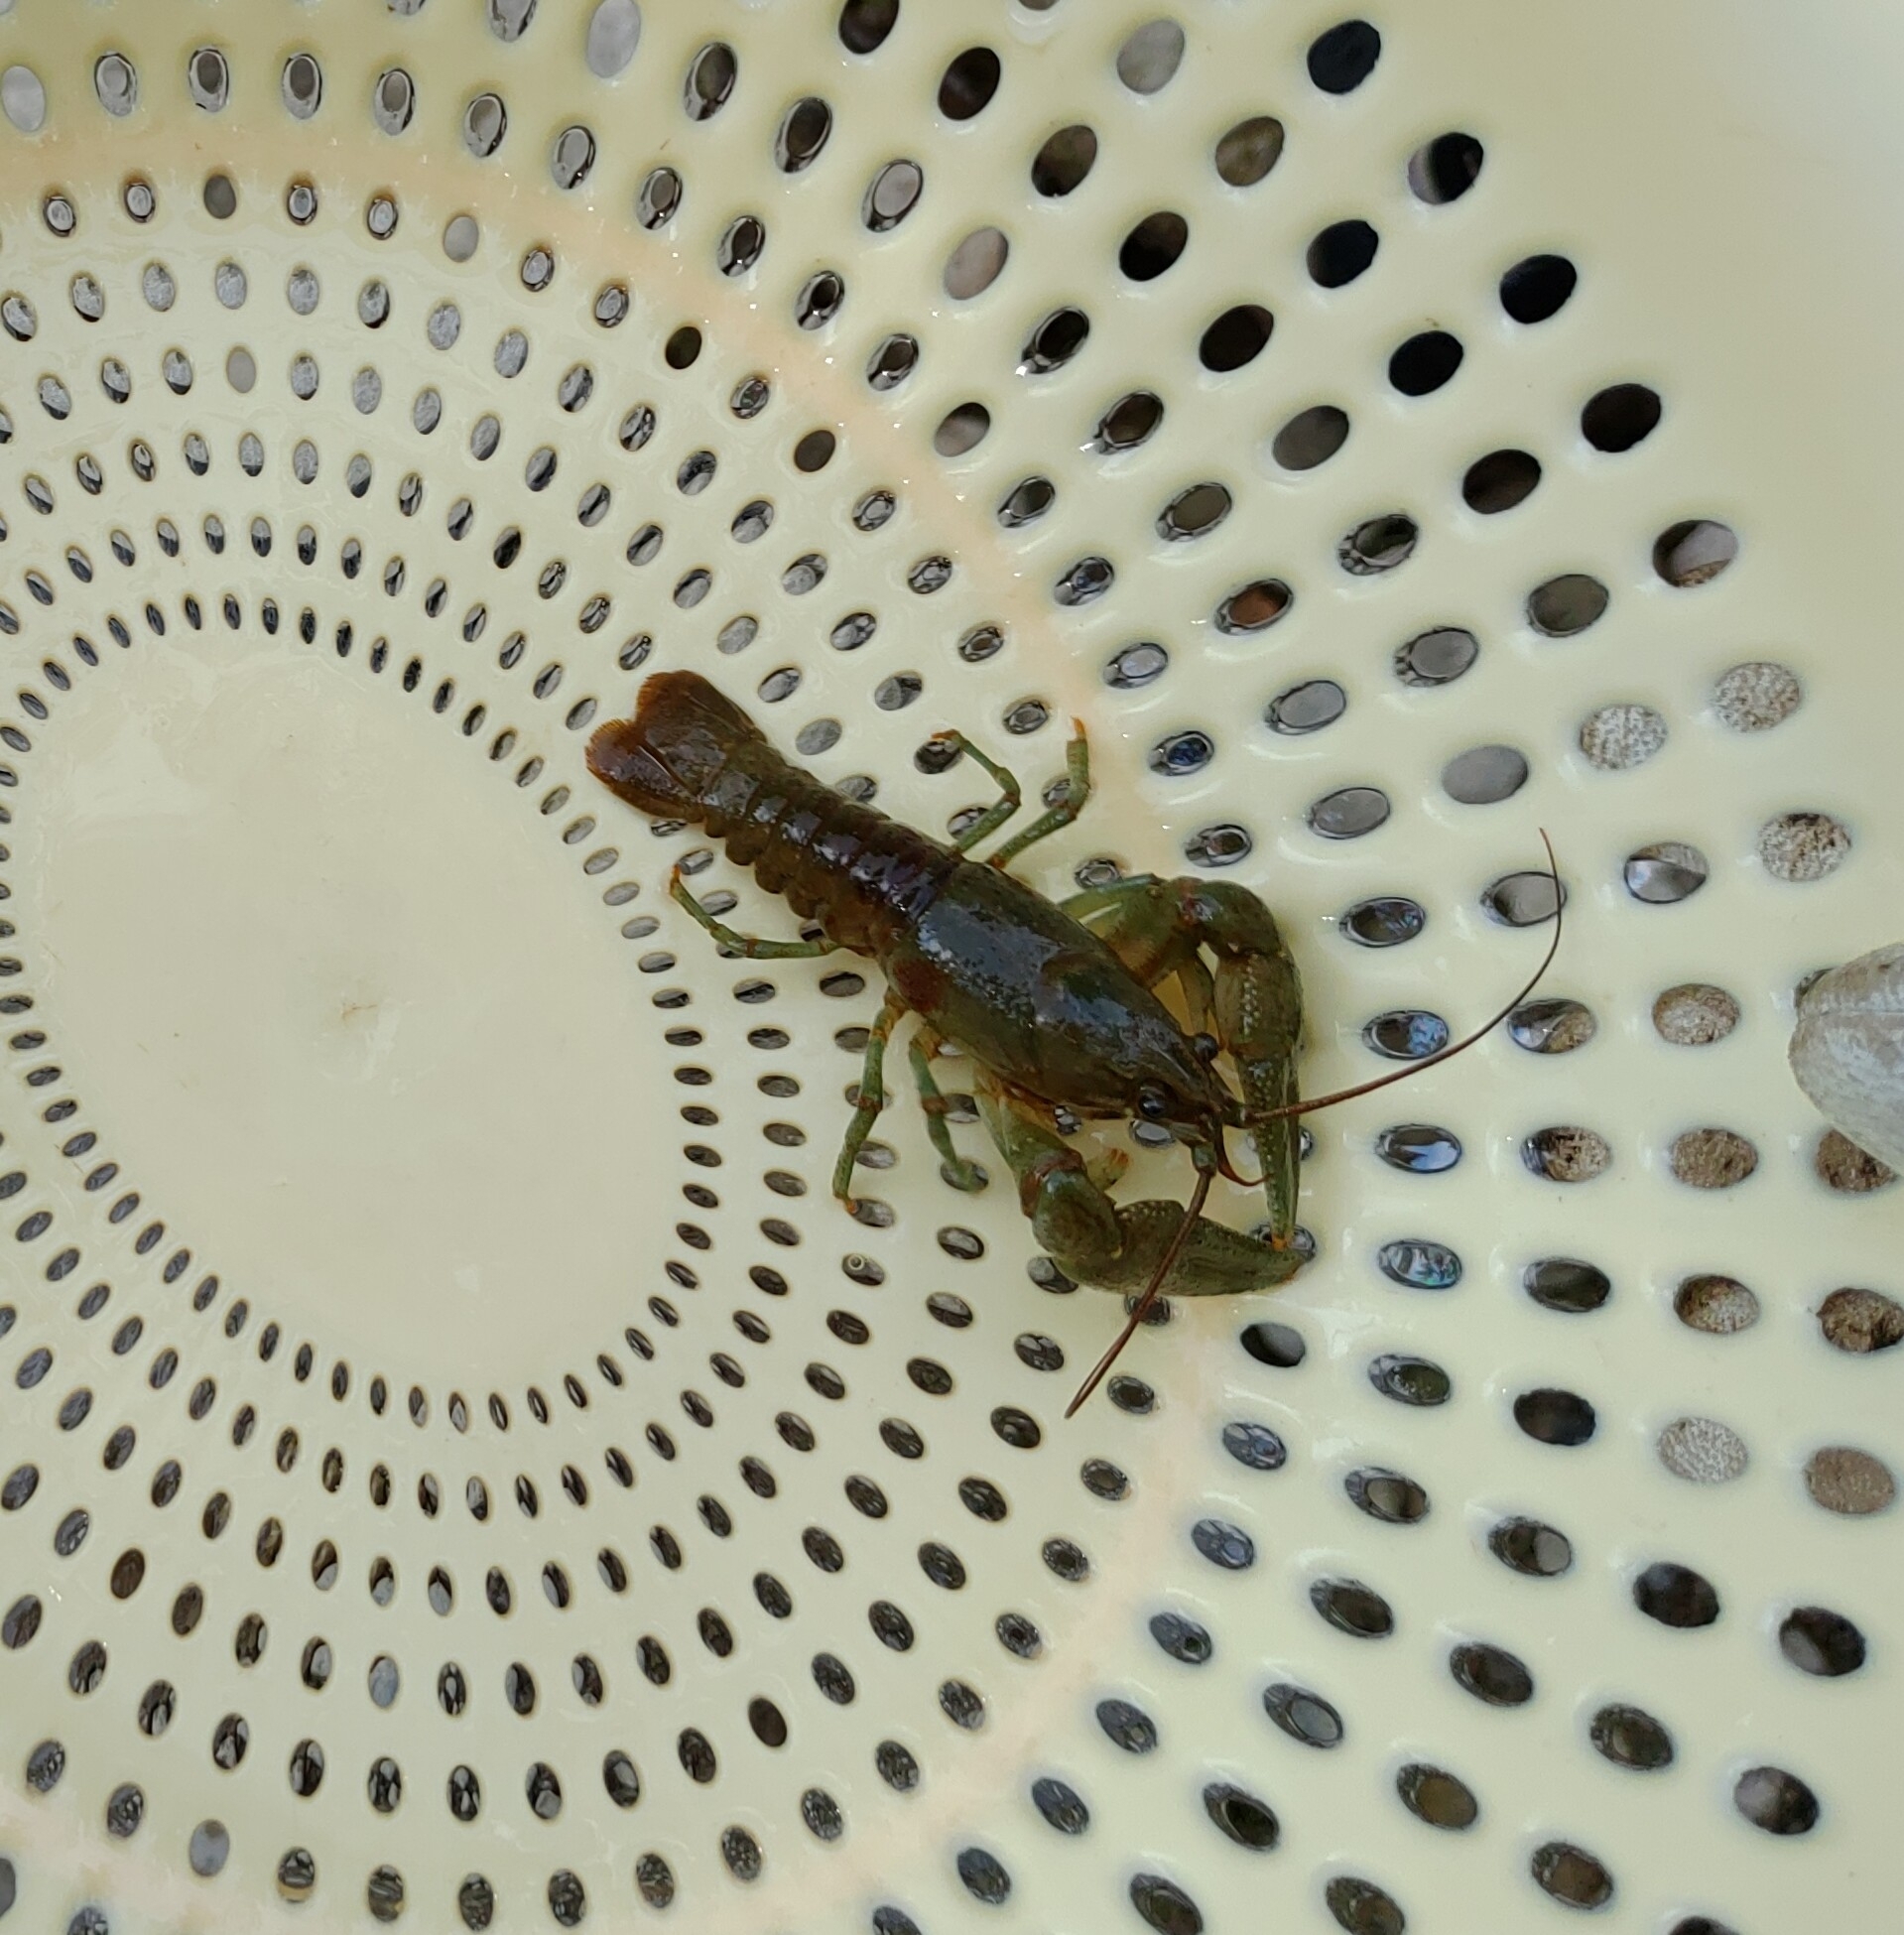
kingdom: Animalia
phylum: Arthropoda
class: Malacostraca
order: Decapoda
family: Cambaridae
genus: Faxonius
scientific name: Faxonius rusticus
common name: Rusty crayfish
